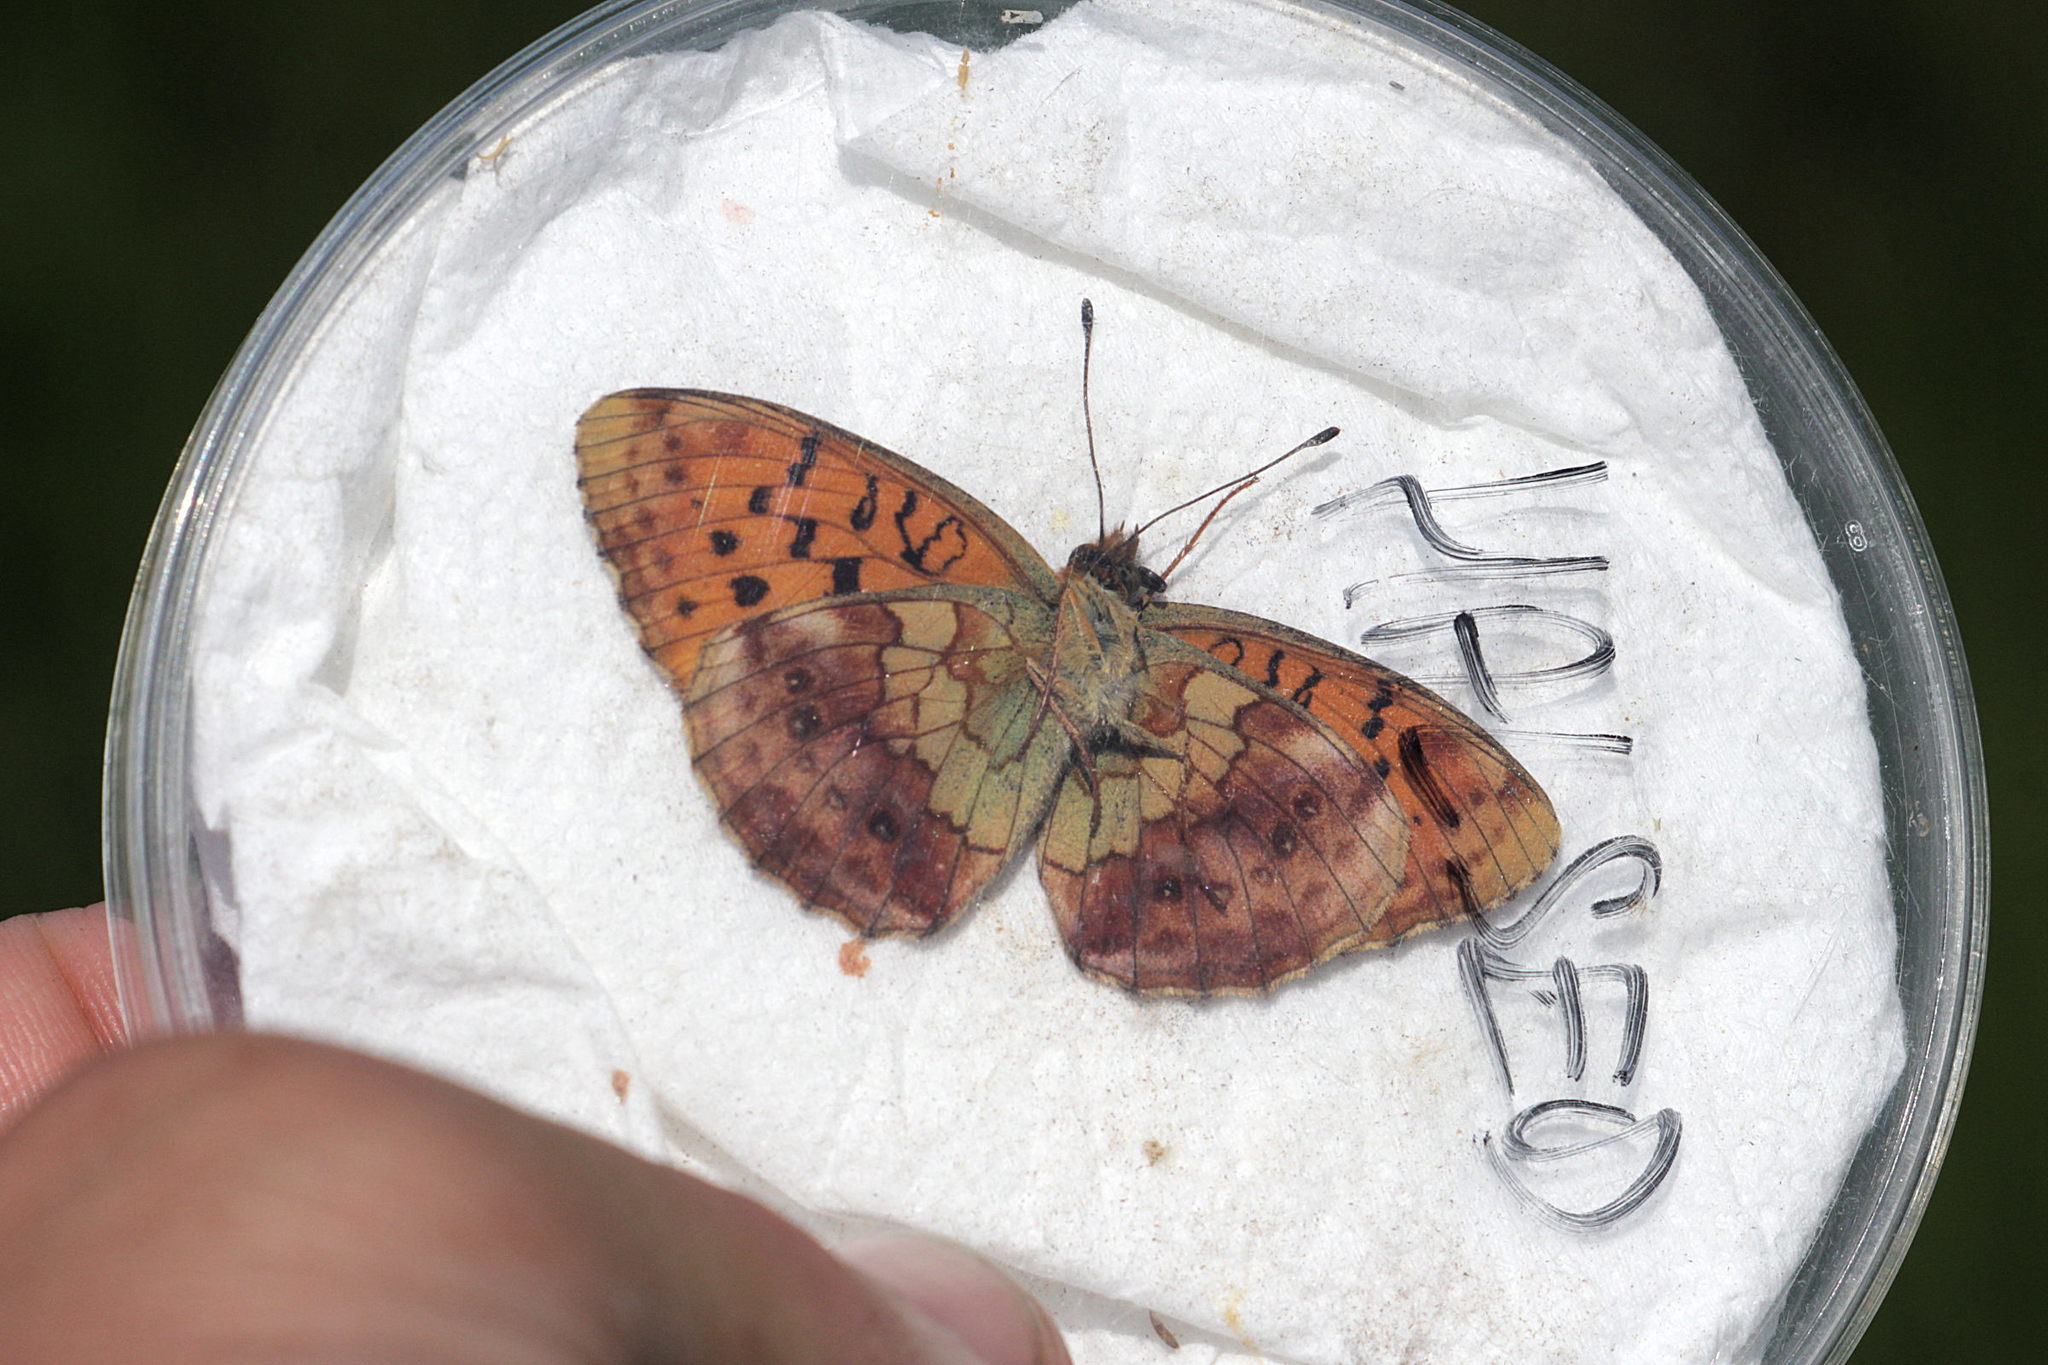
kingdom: Animalia
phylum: Arthropoda
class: Insecta
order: Lepidoptera
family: Nymphalidae
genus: Brenthis
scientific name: Brenthis daphne
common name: Marbled fritillary
